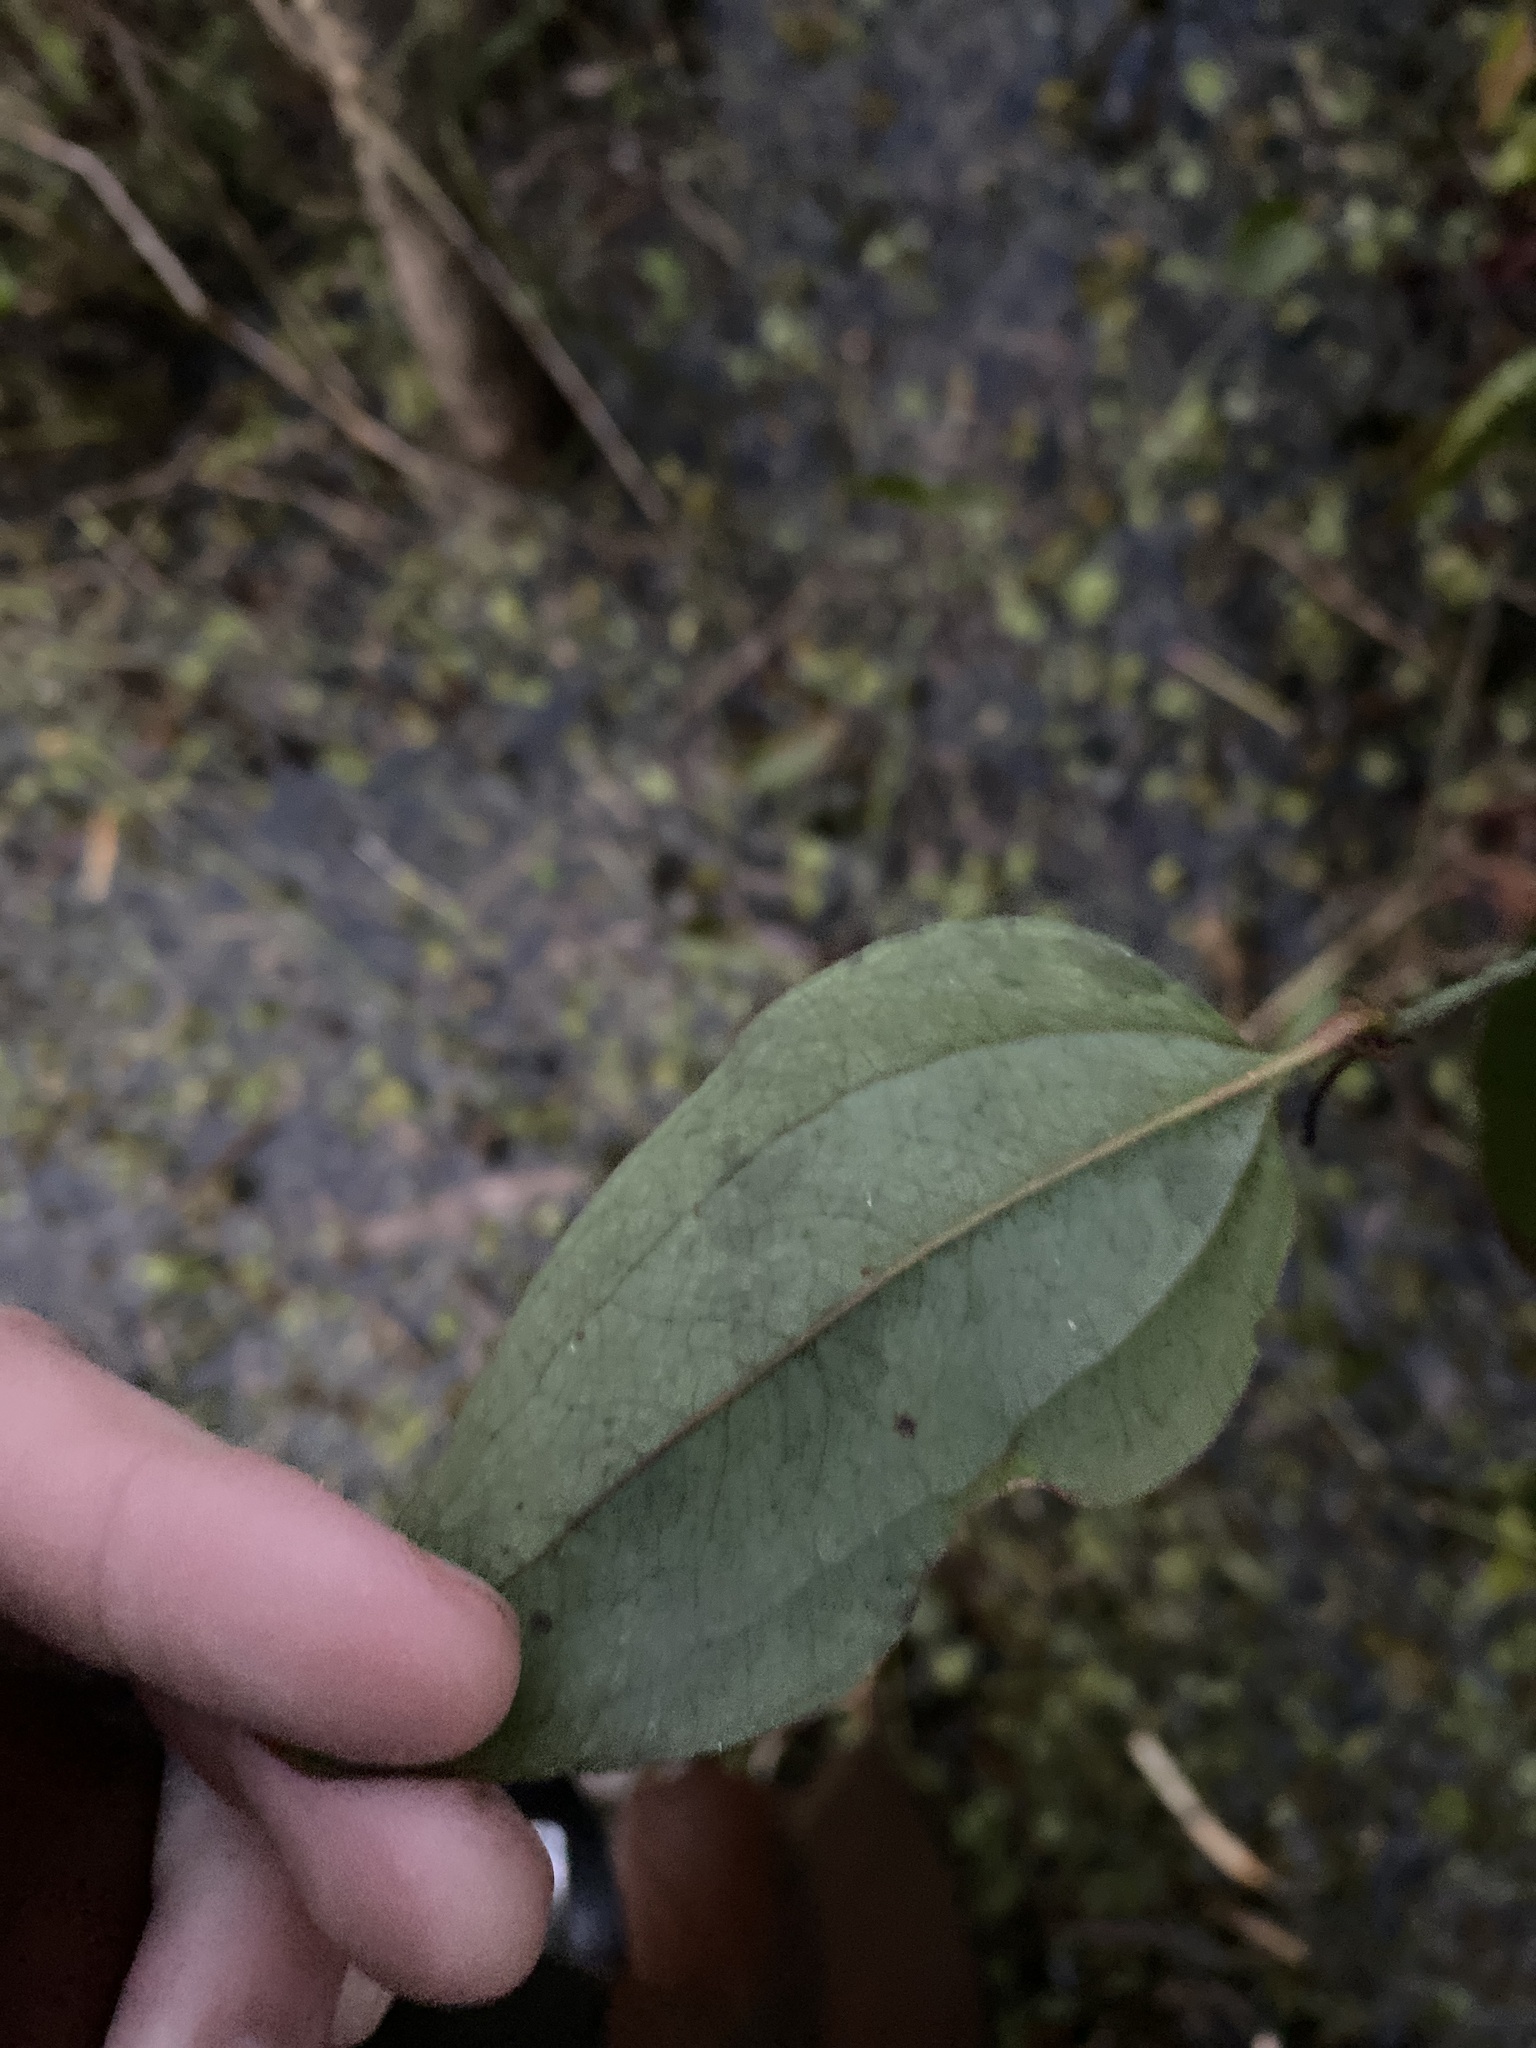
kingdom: Plantae
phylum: Tracheophyta
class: Liliopsida
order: Liliales
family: Smilacaceae
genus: Smilax
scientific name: Smilax maritima
